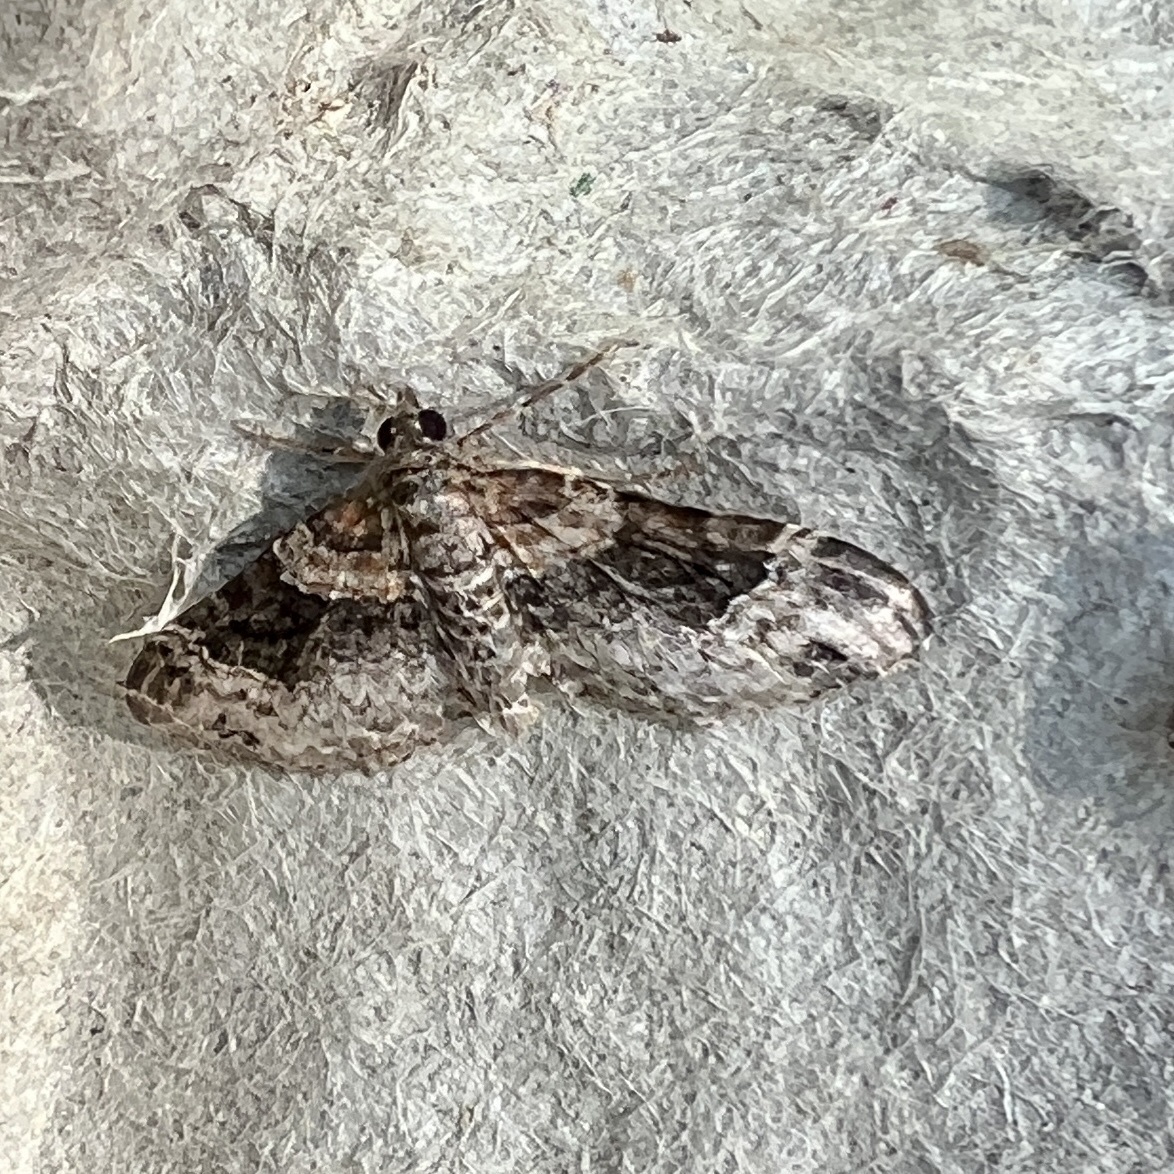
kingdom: Animalia
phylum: Arthropoda
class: Insecta
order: Lepidoptera
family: Geometridae
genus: Xanthorhoe
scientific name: Xanthorhoe ferrugata
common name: Dark-barred twin-spot carpet
